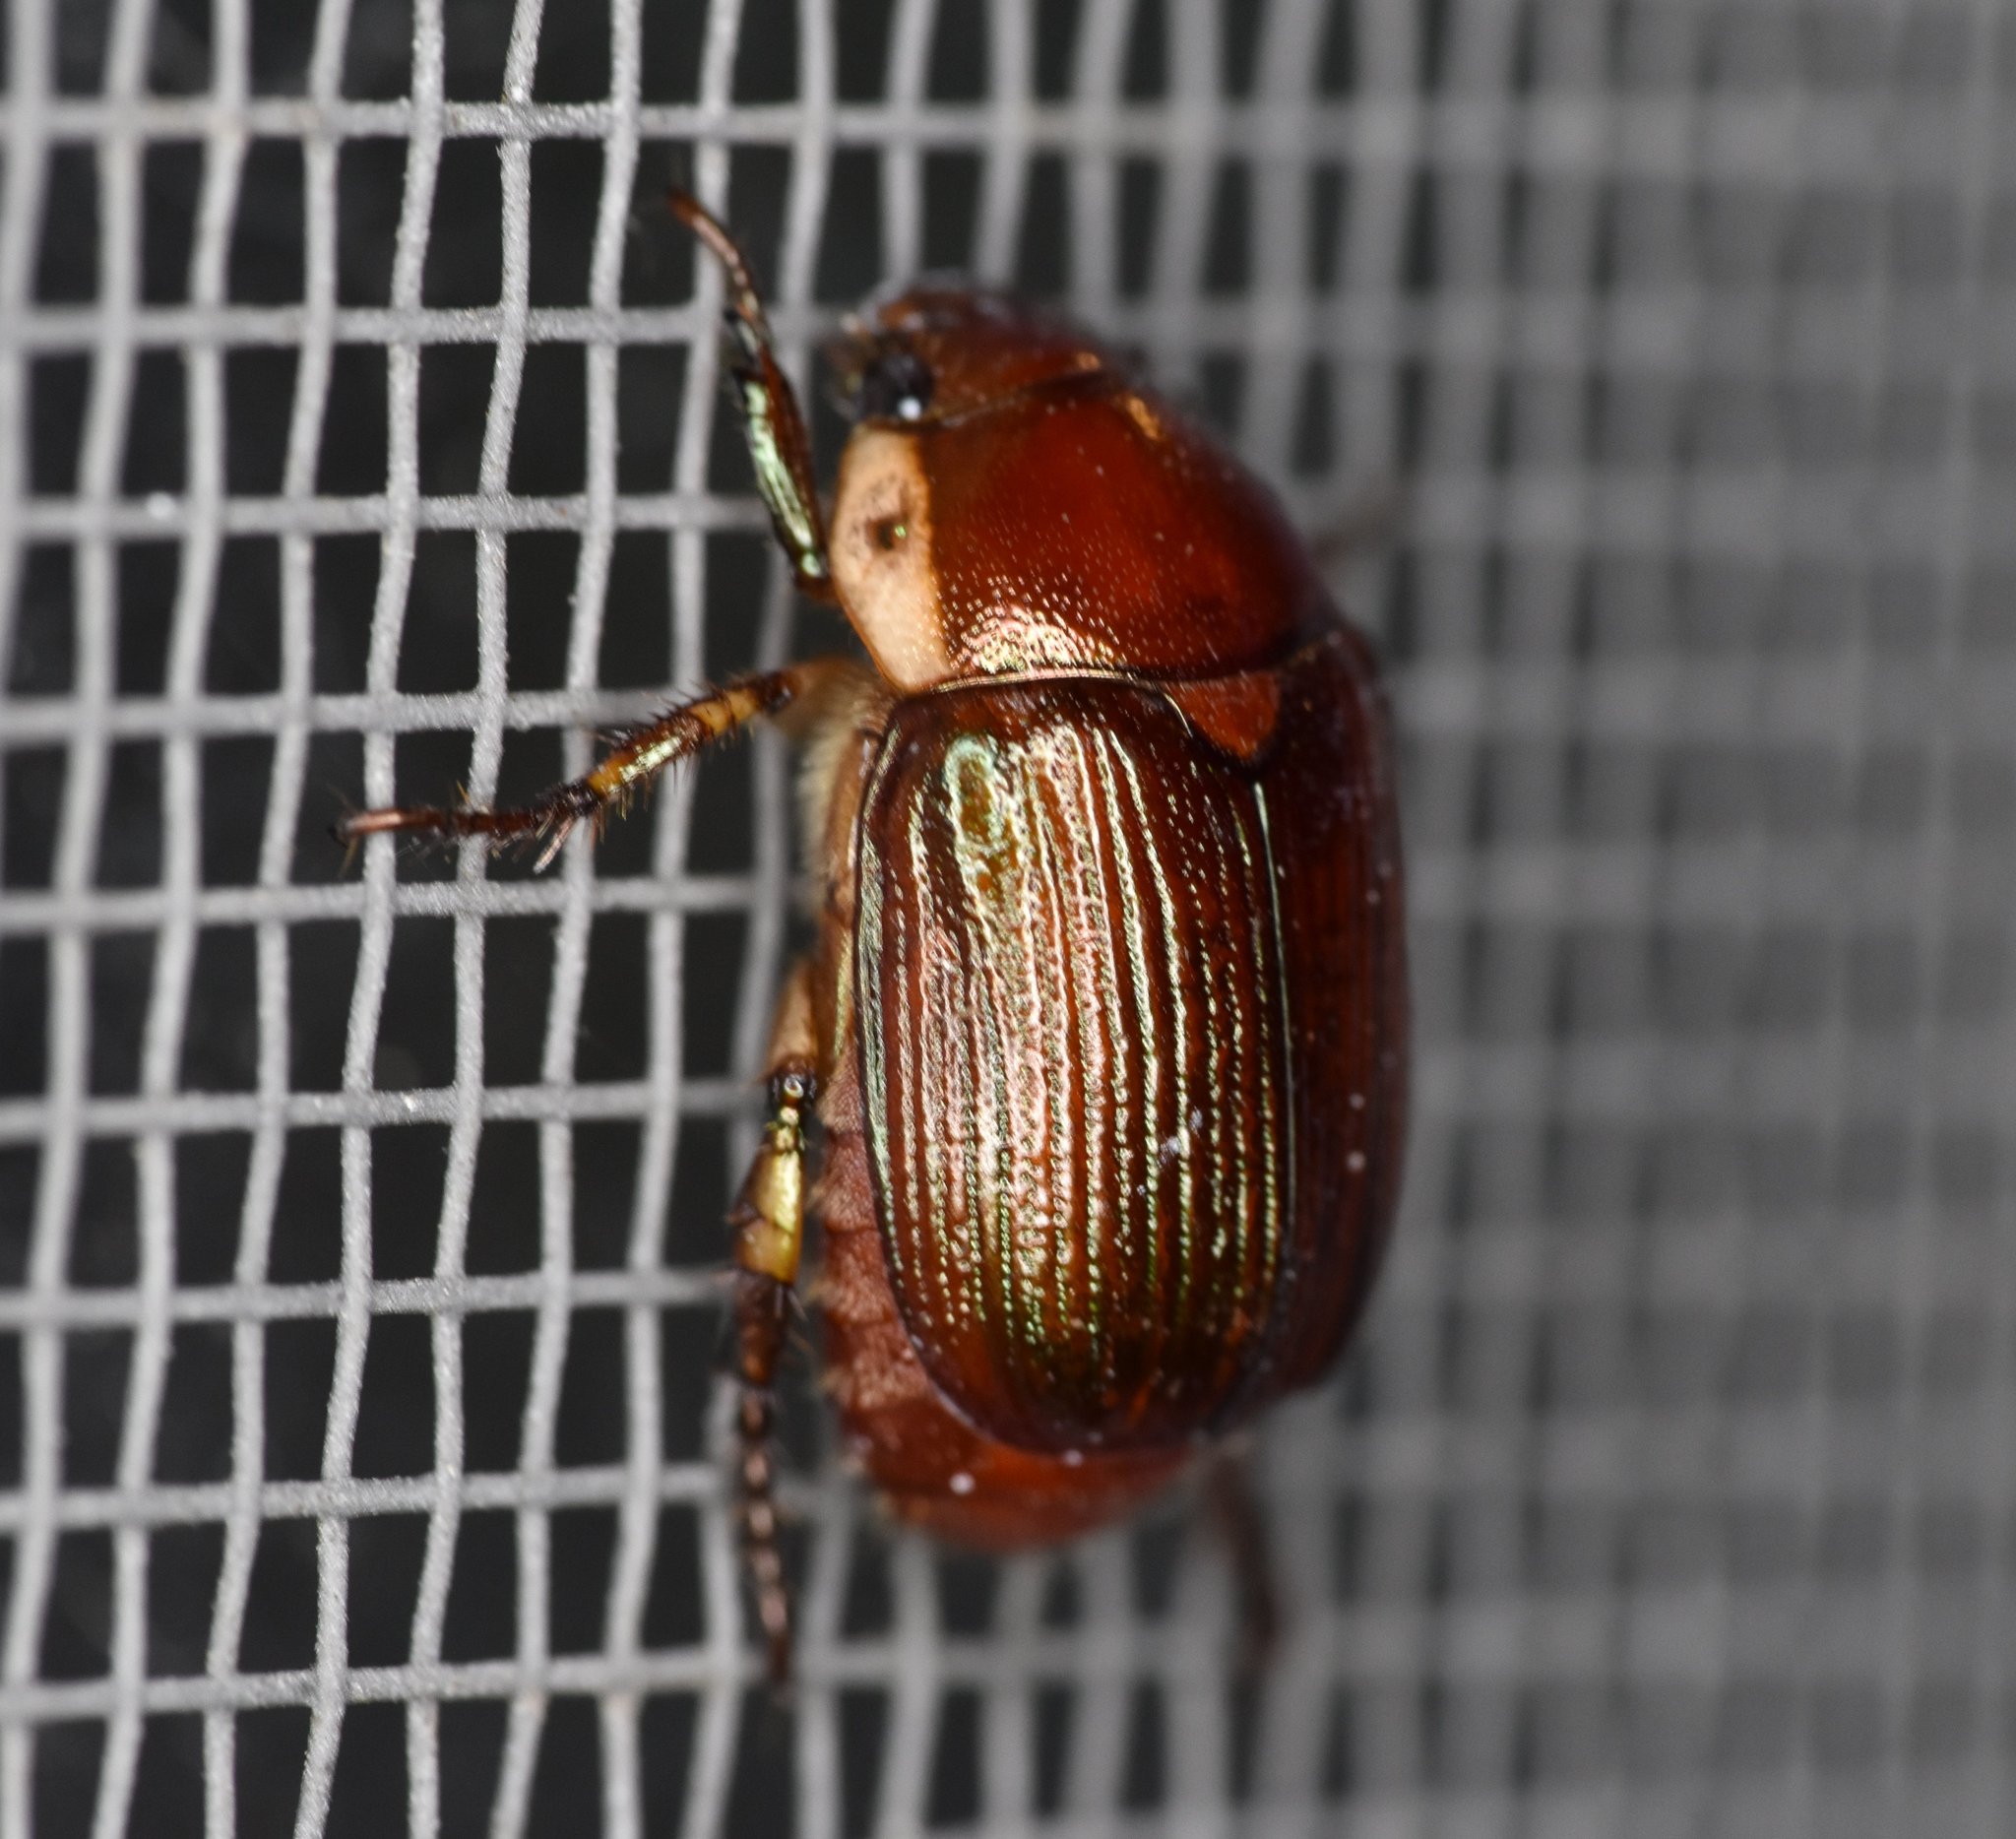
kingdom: Animalia
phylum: Arthropoda
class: Insecta
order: Coleoptera
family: Scarabaeidae
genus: Callistethus
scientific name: Callistethus marginatus
